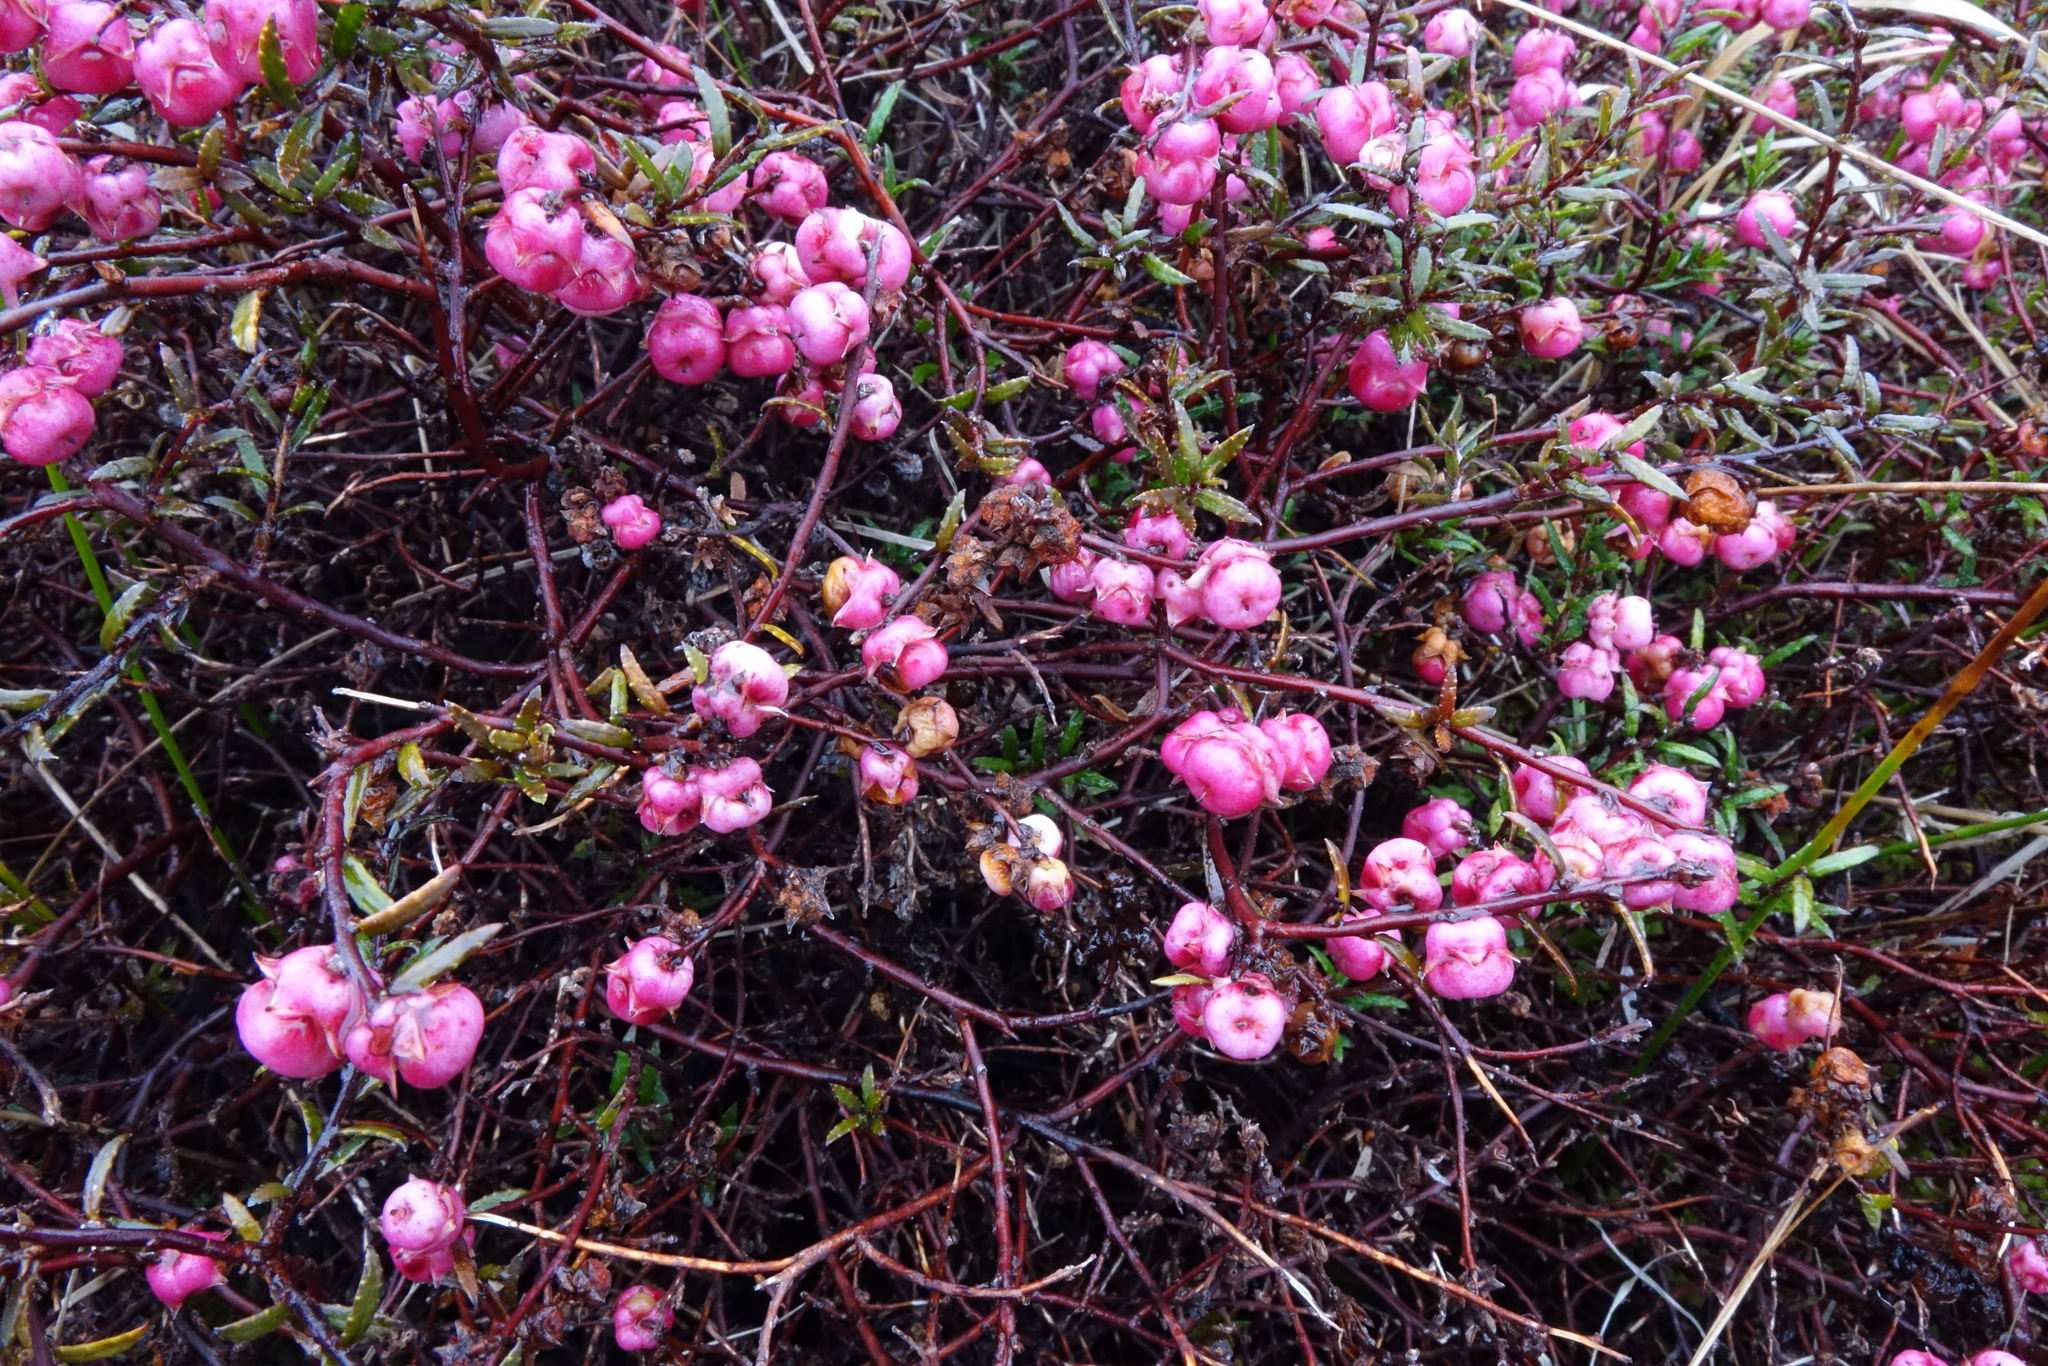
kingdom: Plantae
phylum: Tracheophyta
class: Magnoliopsida
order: Ericales
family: Ericaceae
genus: Gaultheria
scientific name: Gaultheria macrostigma
